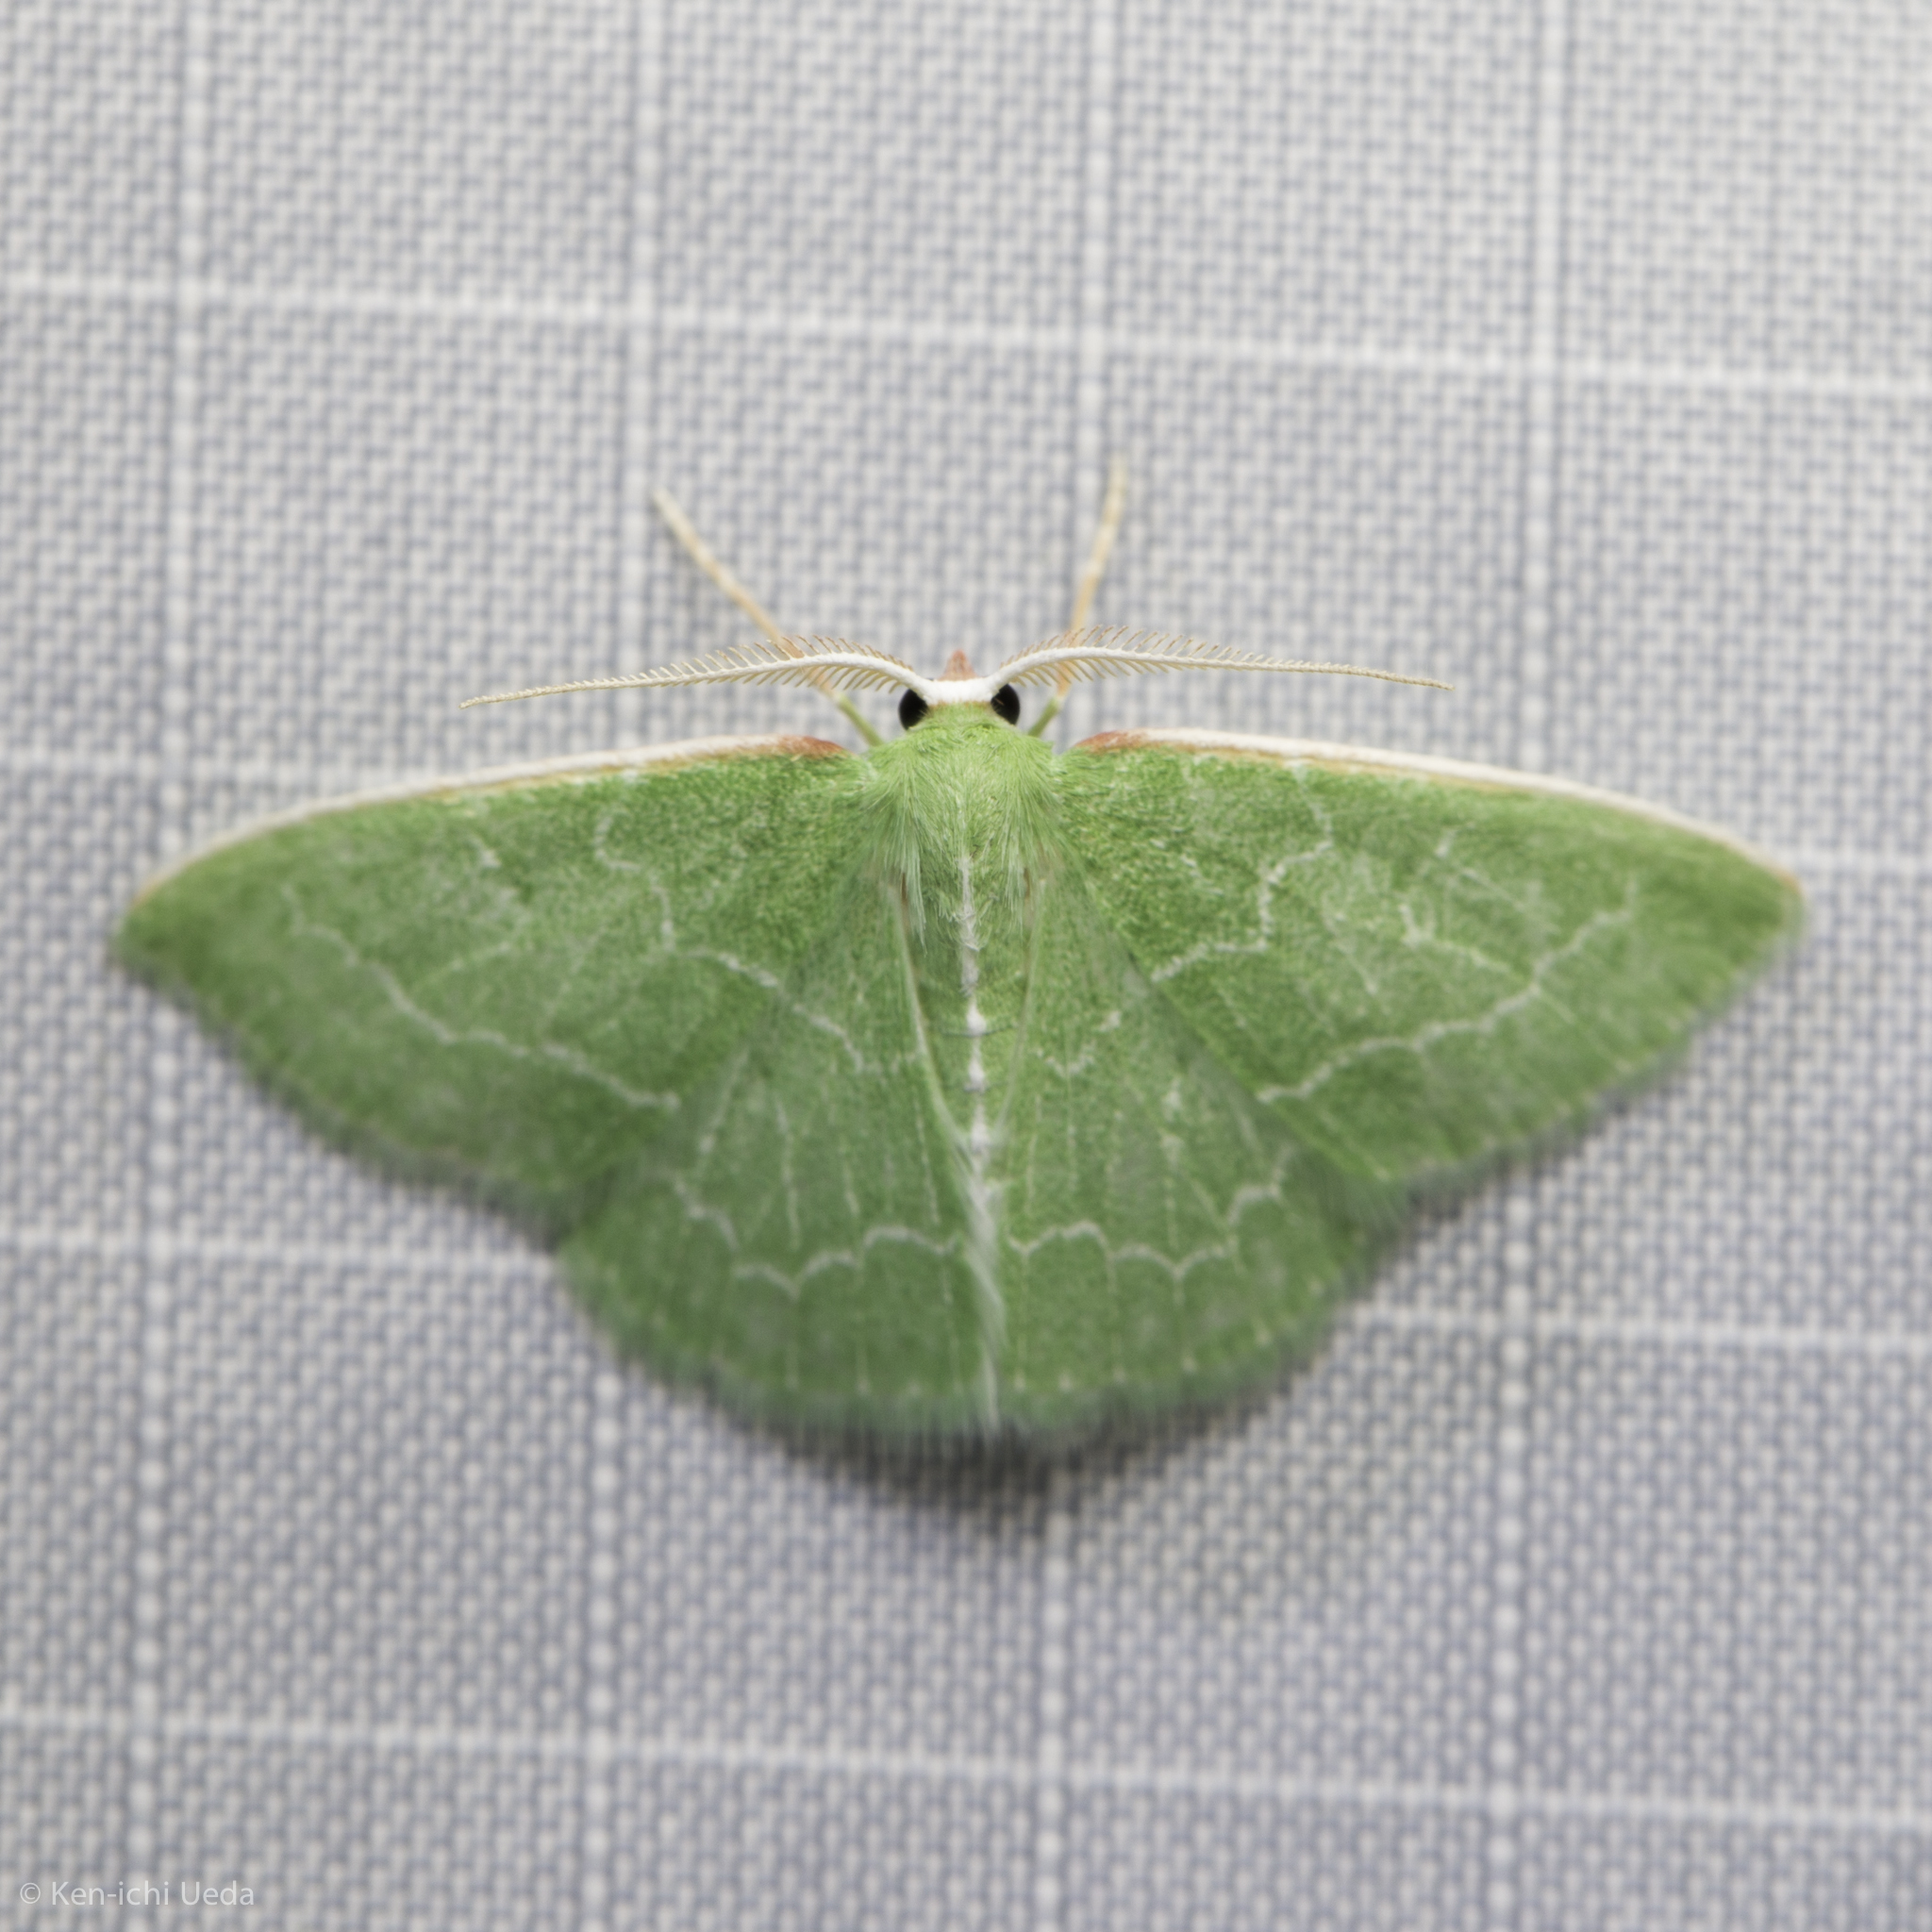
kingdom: Animalia
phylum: Arthropoda
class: Insecta
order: Lepidoptera
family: Geometridae
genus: Synchlora
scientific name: Synchlora aerata
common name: Wavy-lined emerald
